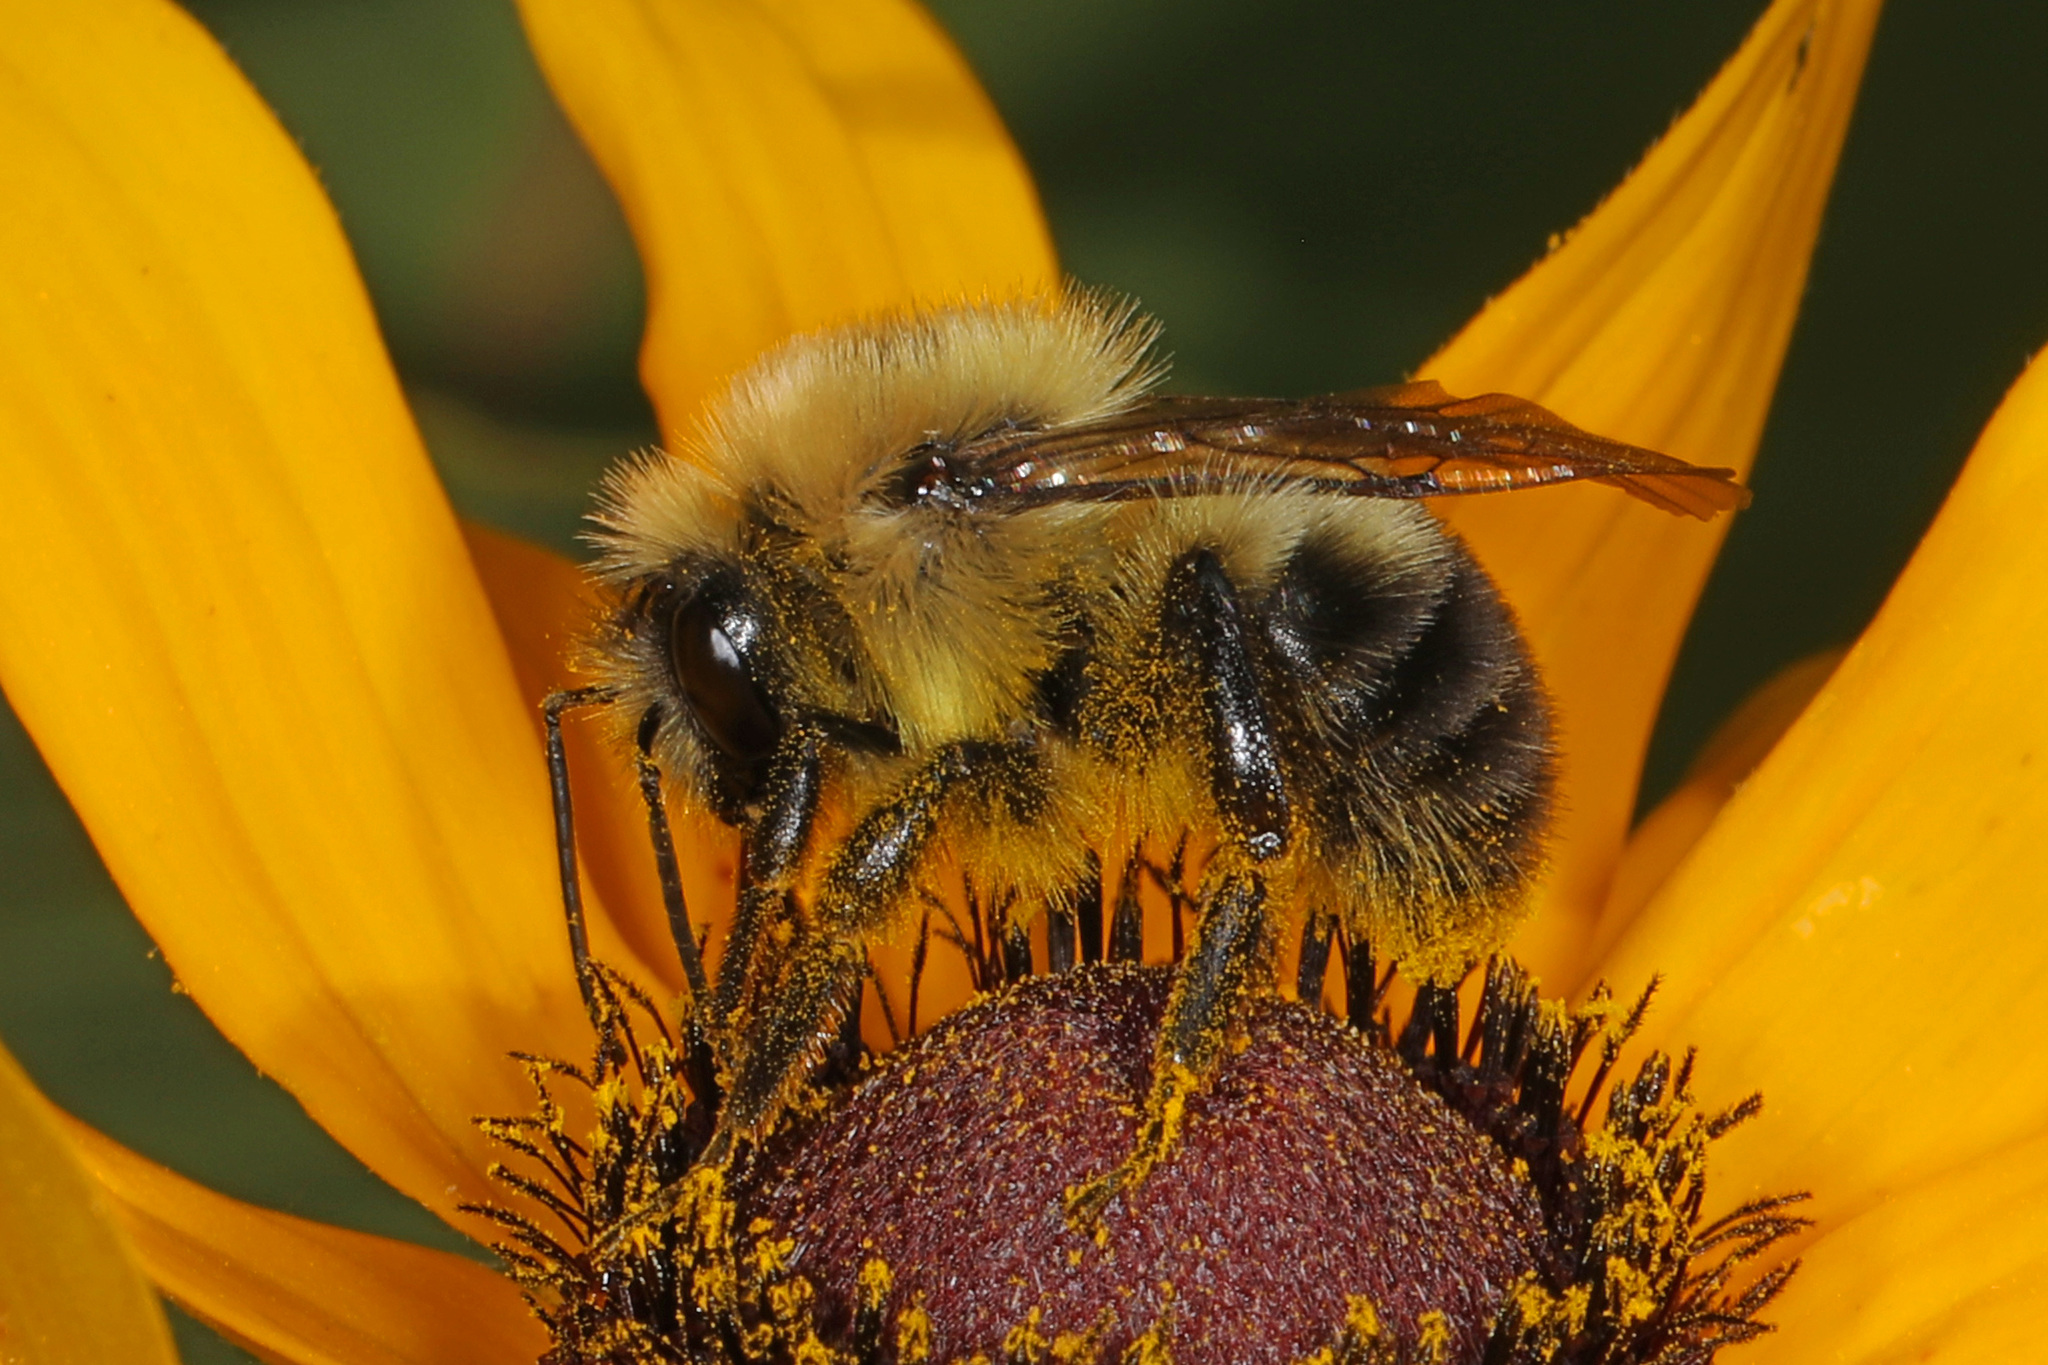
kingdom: Animalia
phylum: Arthropoda
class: Insecta
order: Hymenoptera
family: Apidae
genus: Bombus
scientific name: Bombus bimaculatus
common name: Two-spotted bumble bee
